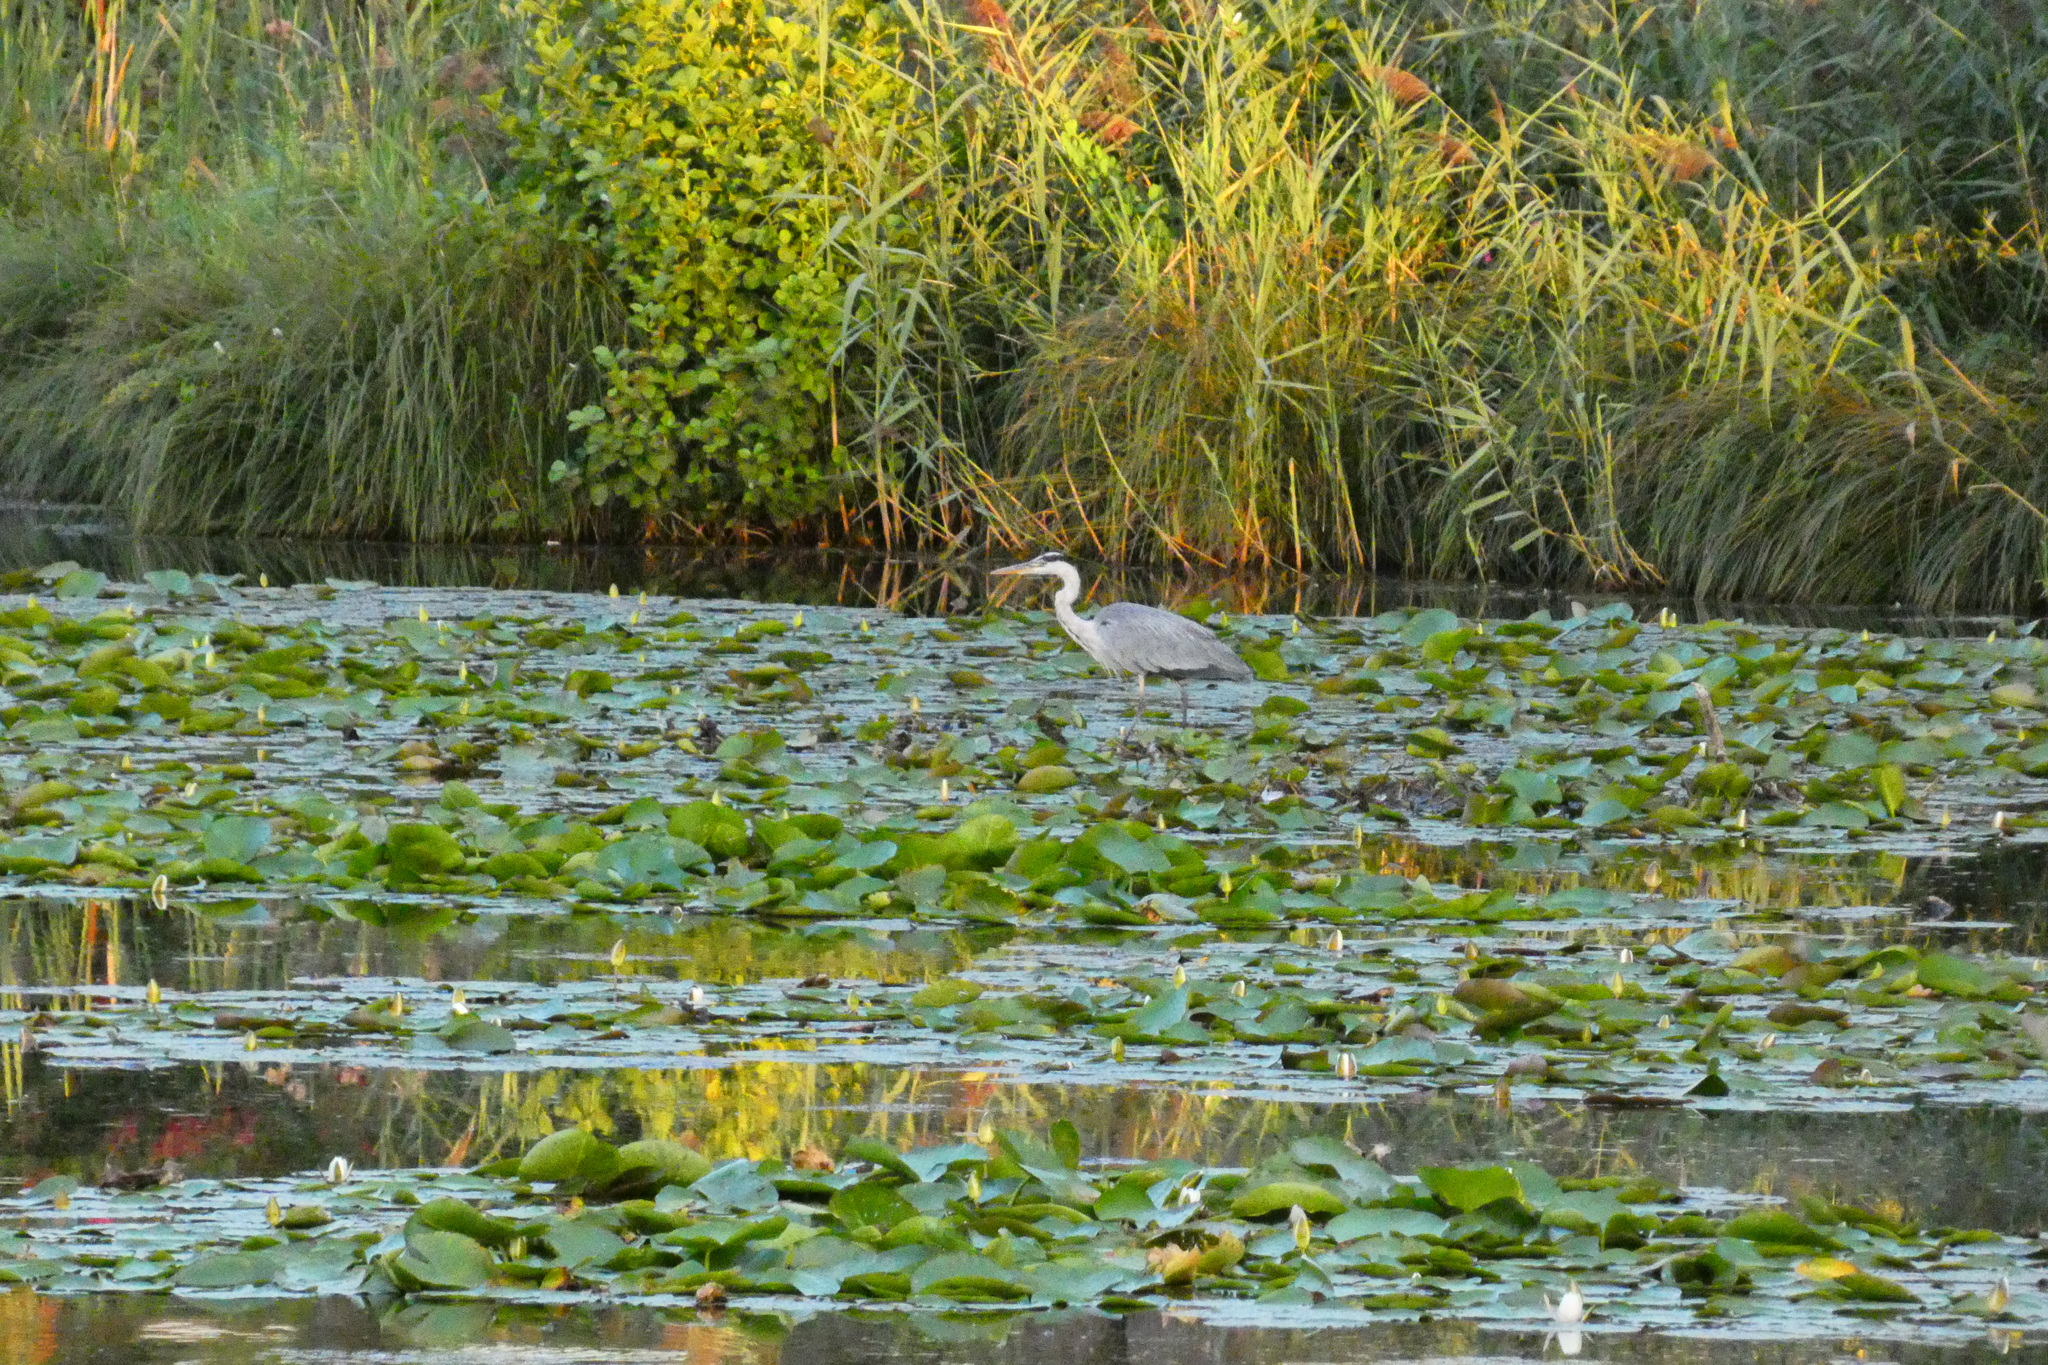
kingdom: Animalia
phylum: Chordata
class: Aves
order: Pelecaniformes
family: Ardeidae
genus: Ardea
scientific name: Ardea cinerea
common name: Grey heron
